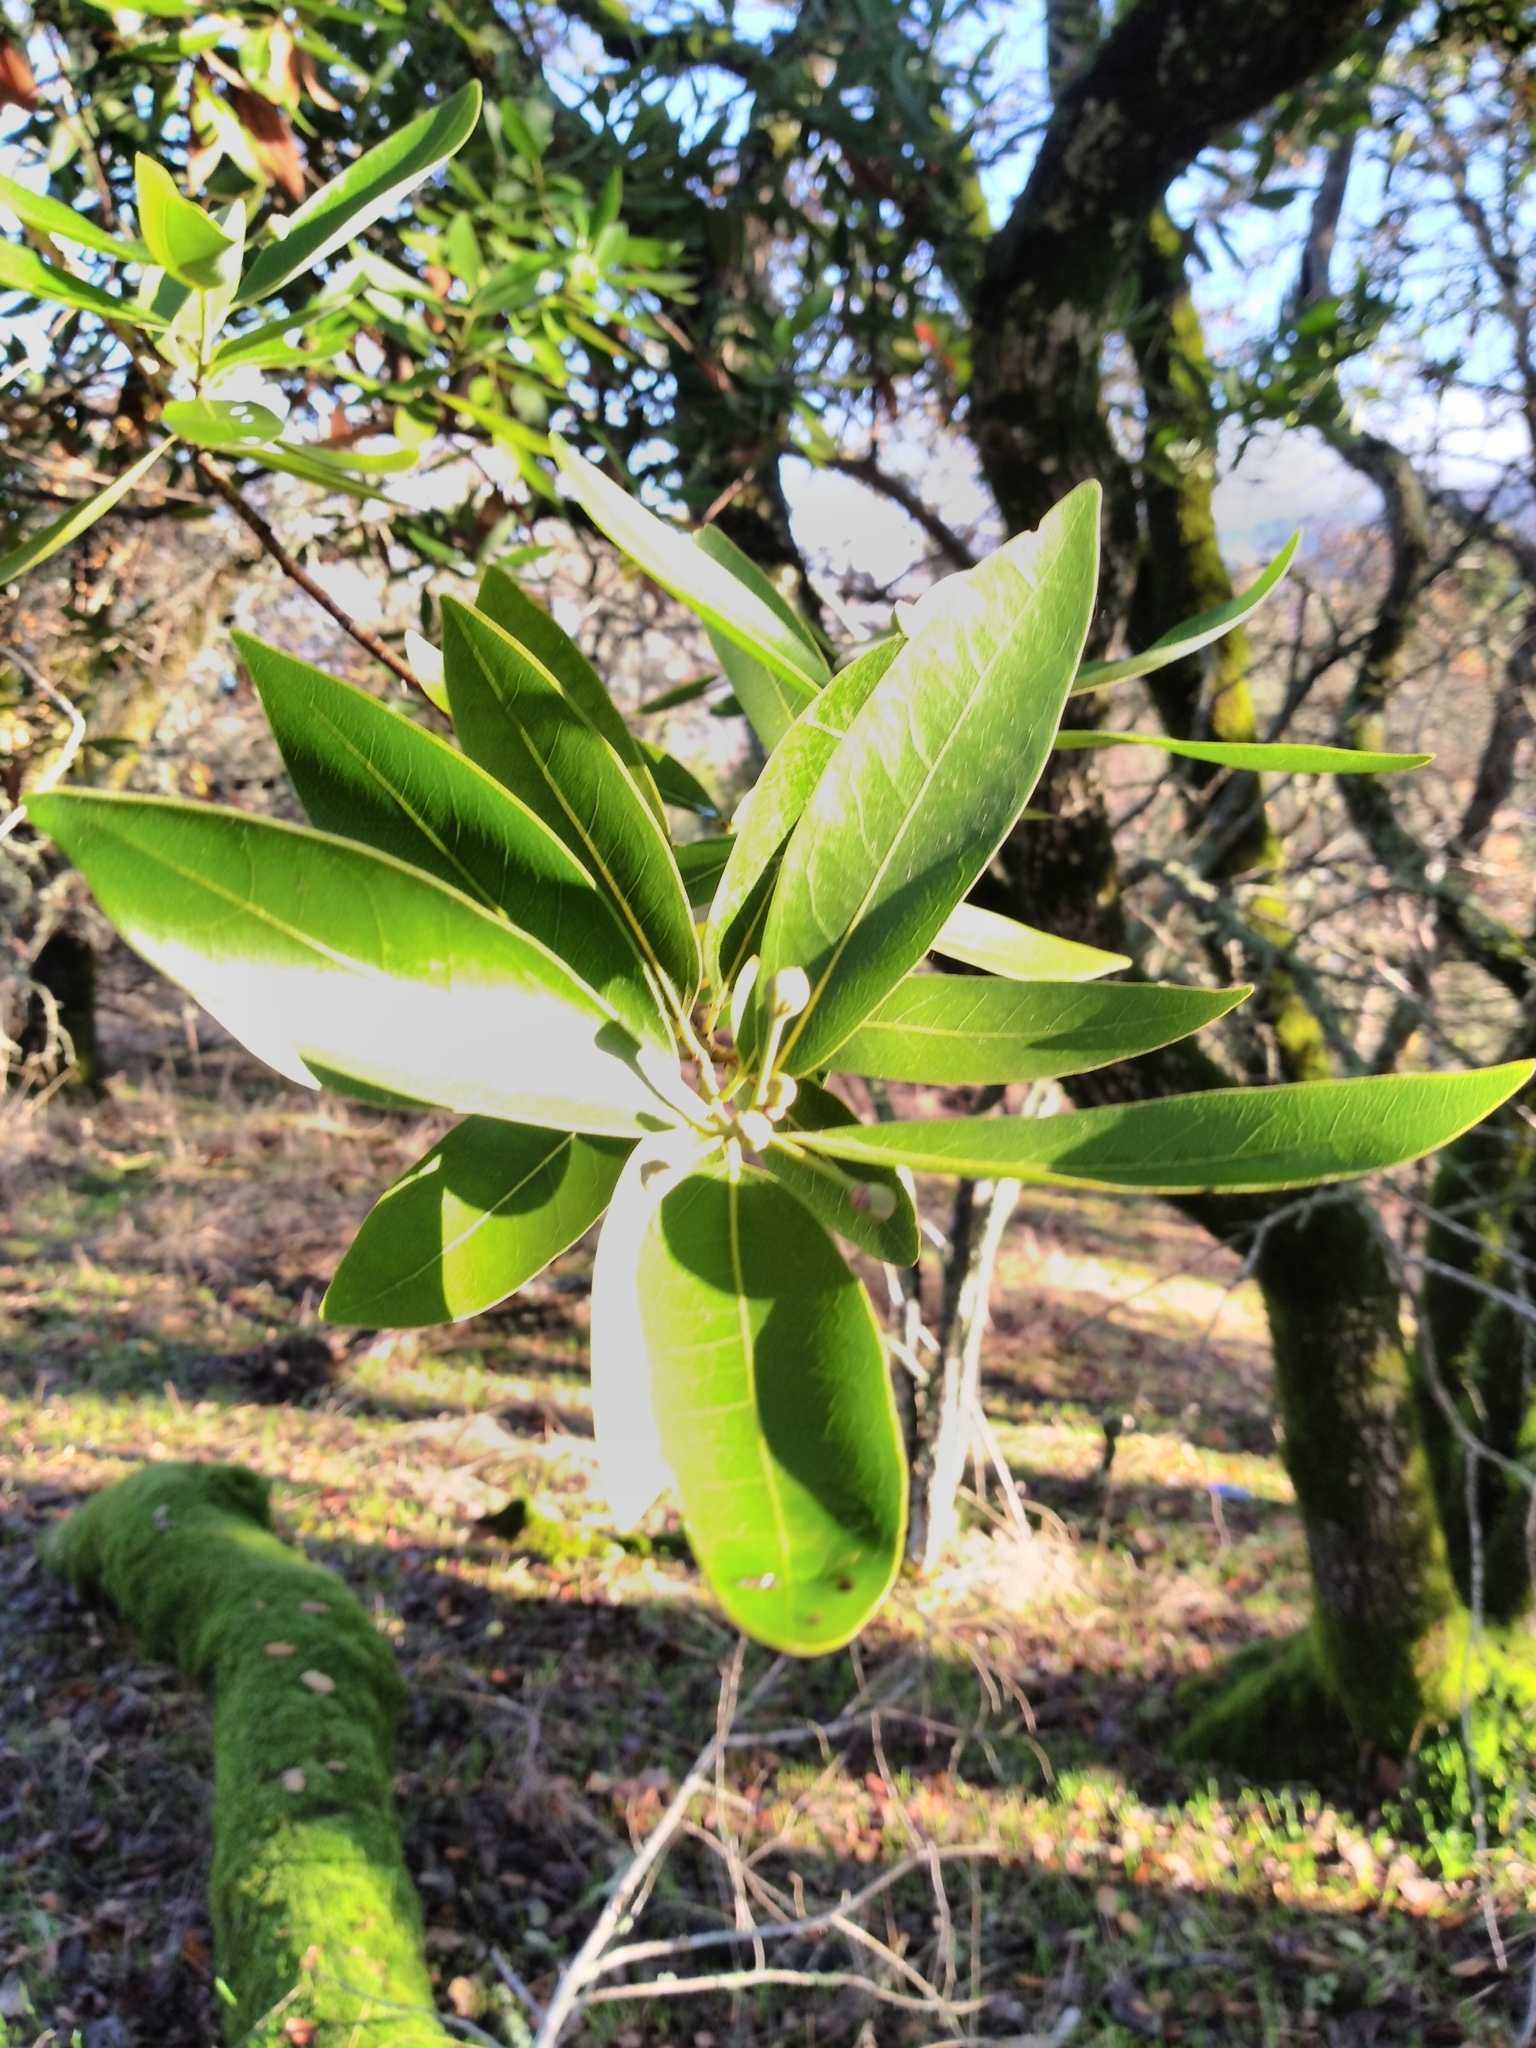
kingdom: Plantae
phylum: Tracheophyta
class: Magnoliopsida
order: Laurales
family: Lauraceae
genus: Umbellularia
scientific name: Umbellularia californica
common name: California bay
